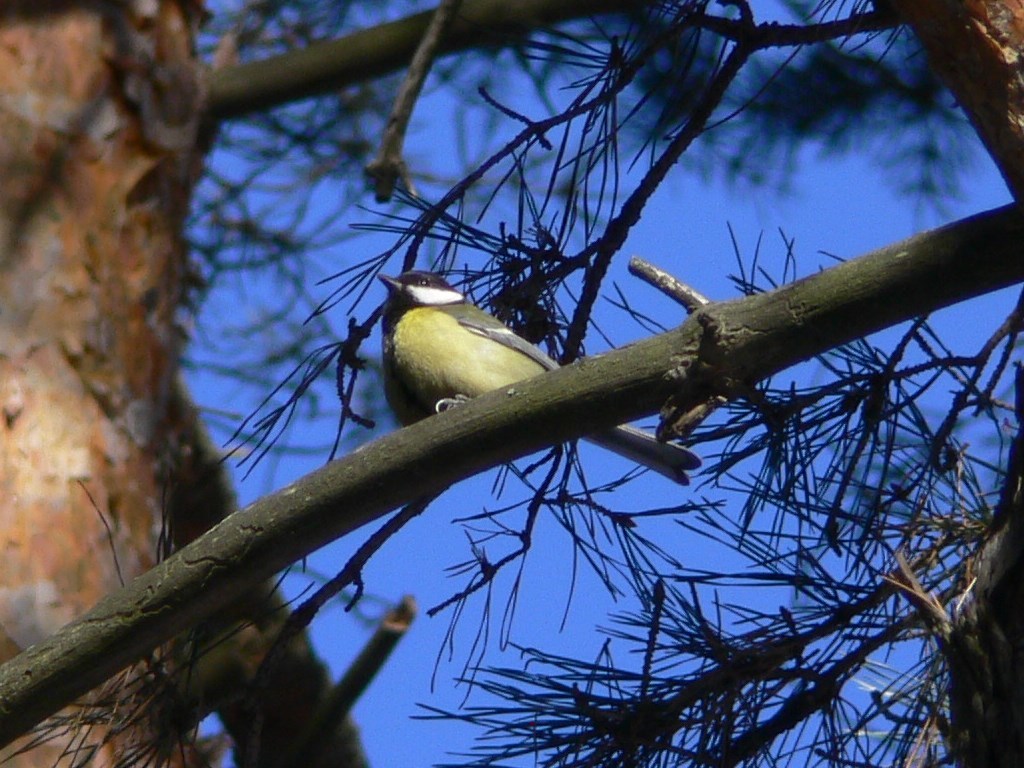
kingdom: Animalia
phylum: Chordata
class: Aves
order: Passeriformes
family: Paridae
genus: Parus
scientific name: Parus major
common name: Great tit
